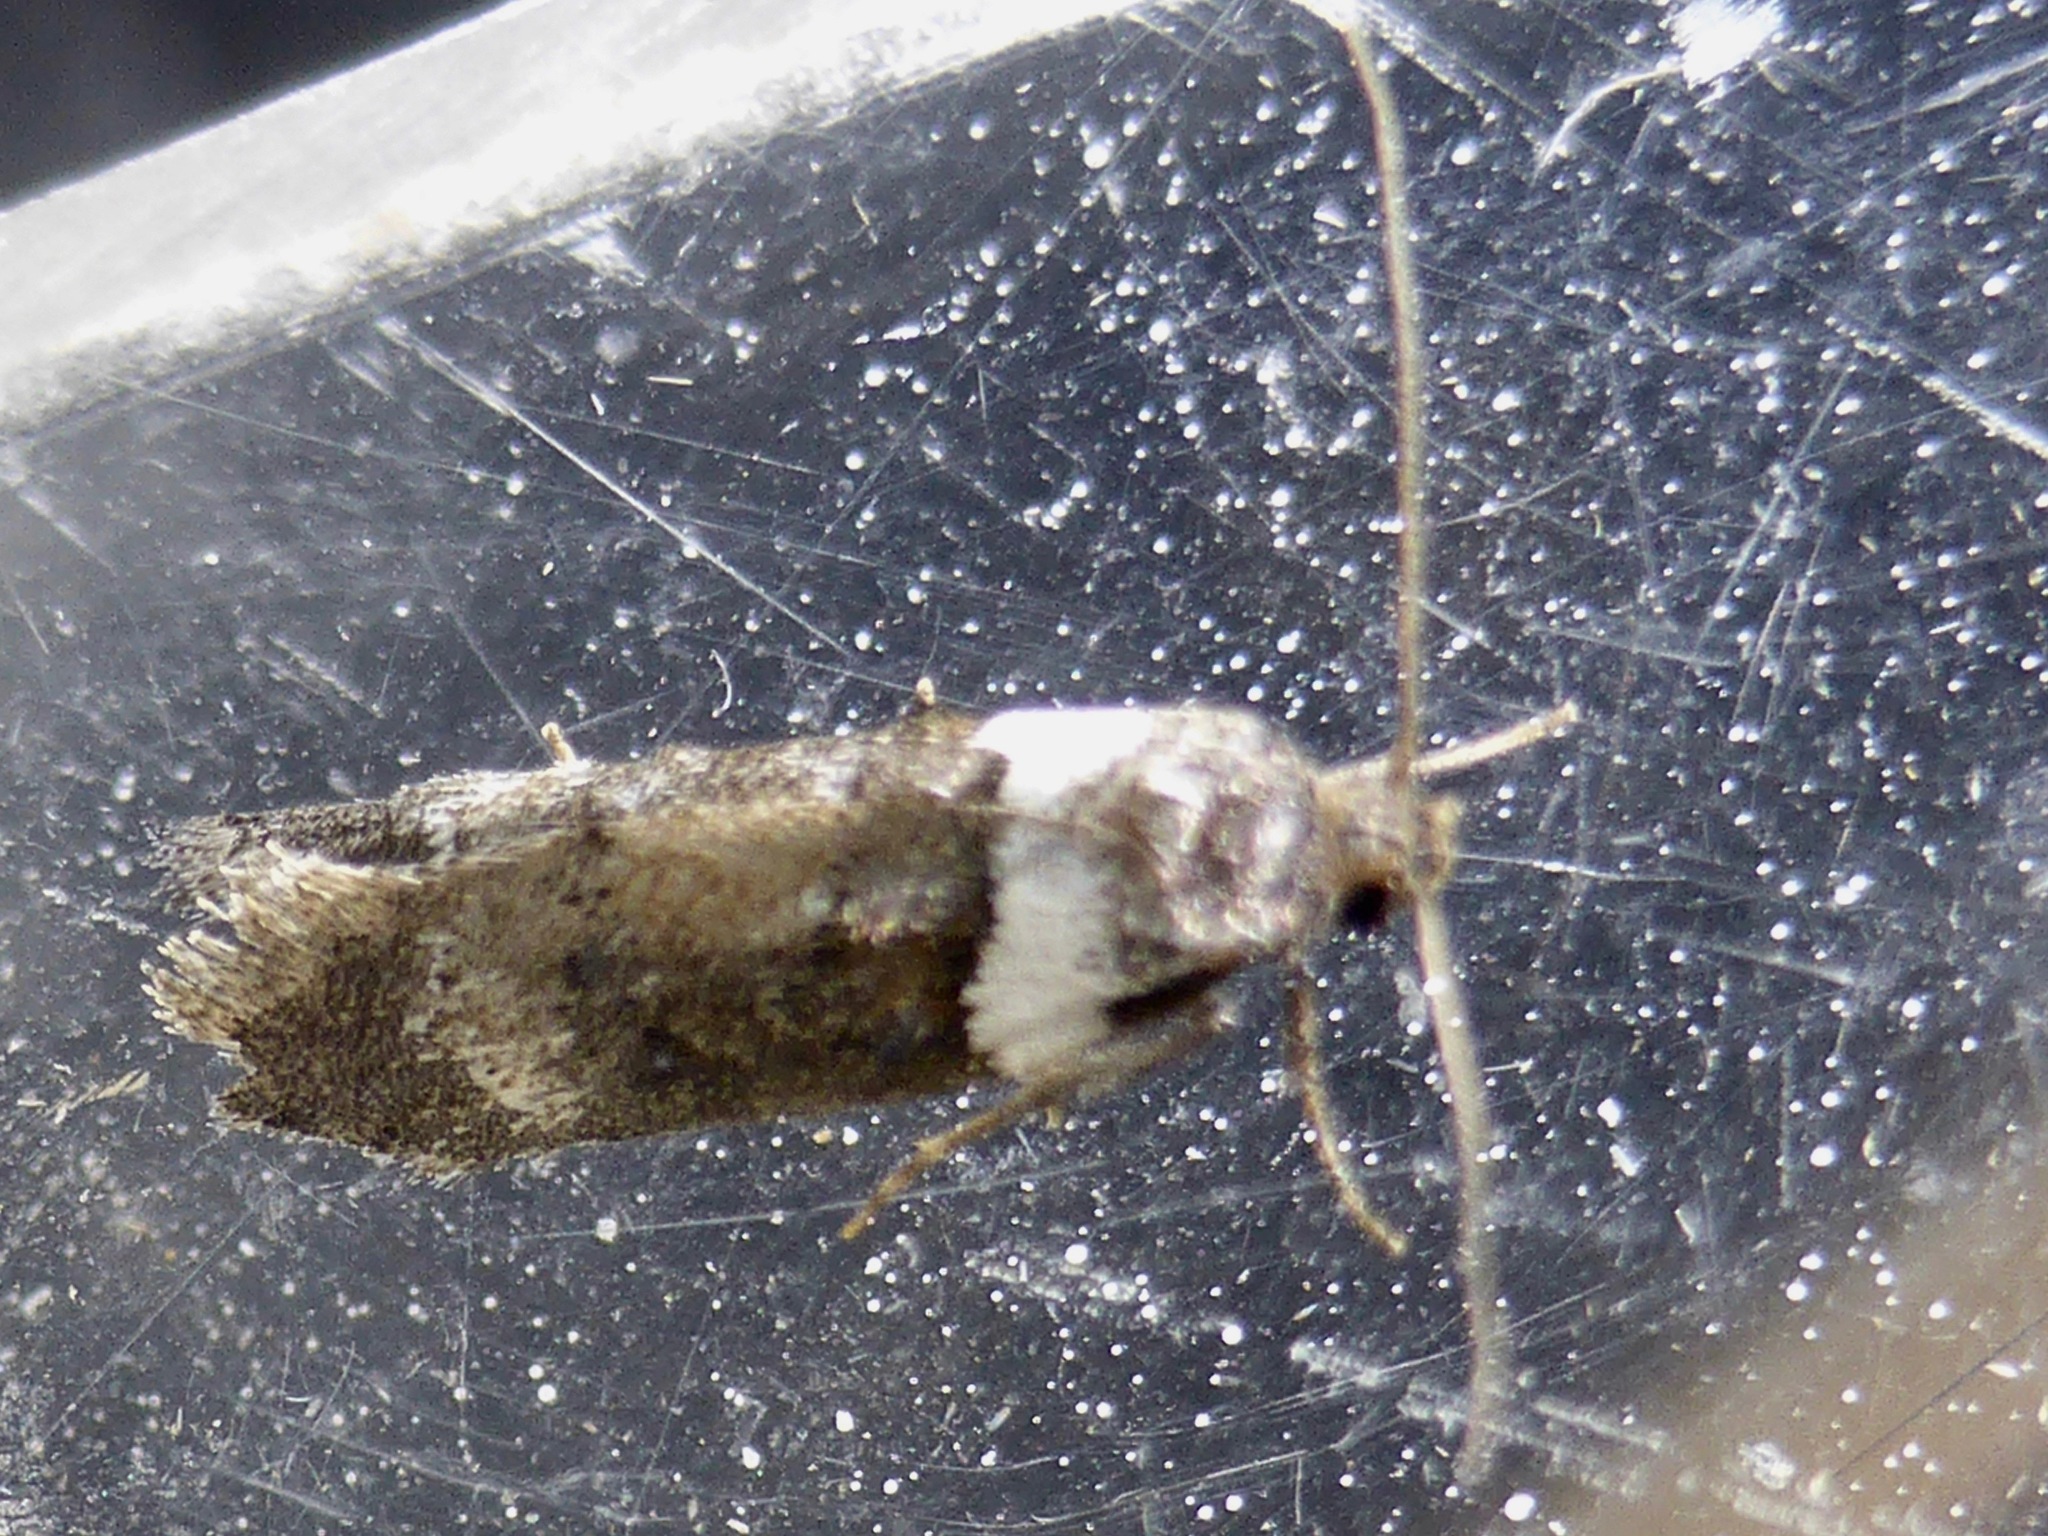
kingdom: Animalia
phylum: Arthropoda
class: Insecta
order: Lepidoptera
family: Oecophoridae
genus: Trachypepla
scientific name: Trachypepla conspicuella
